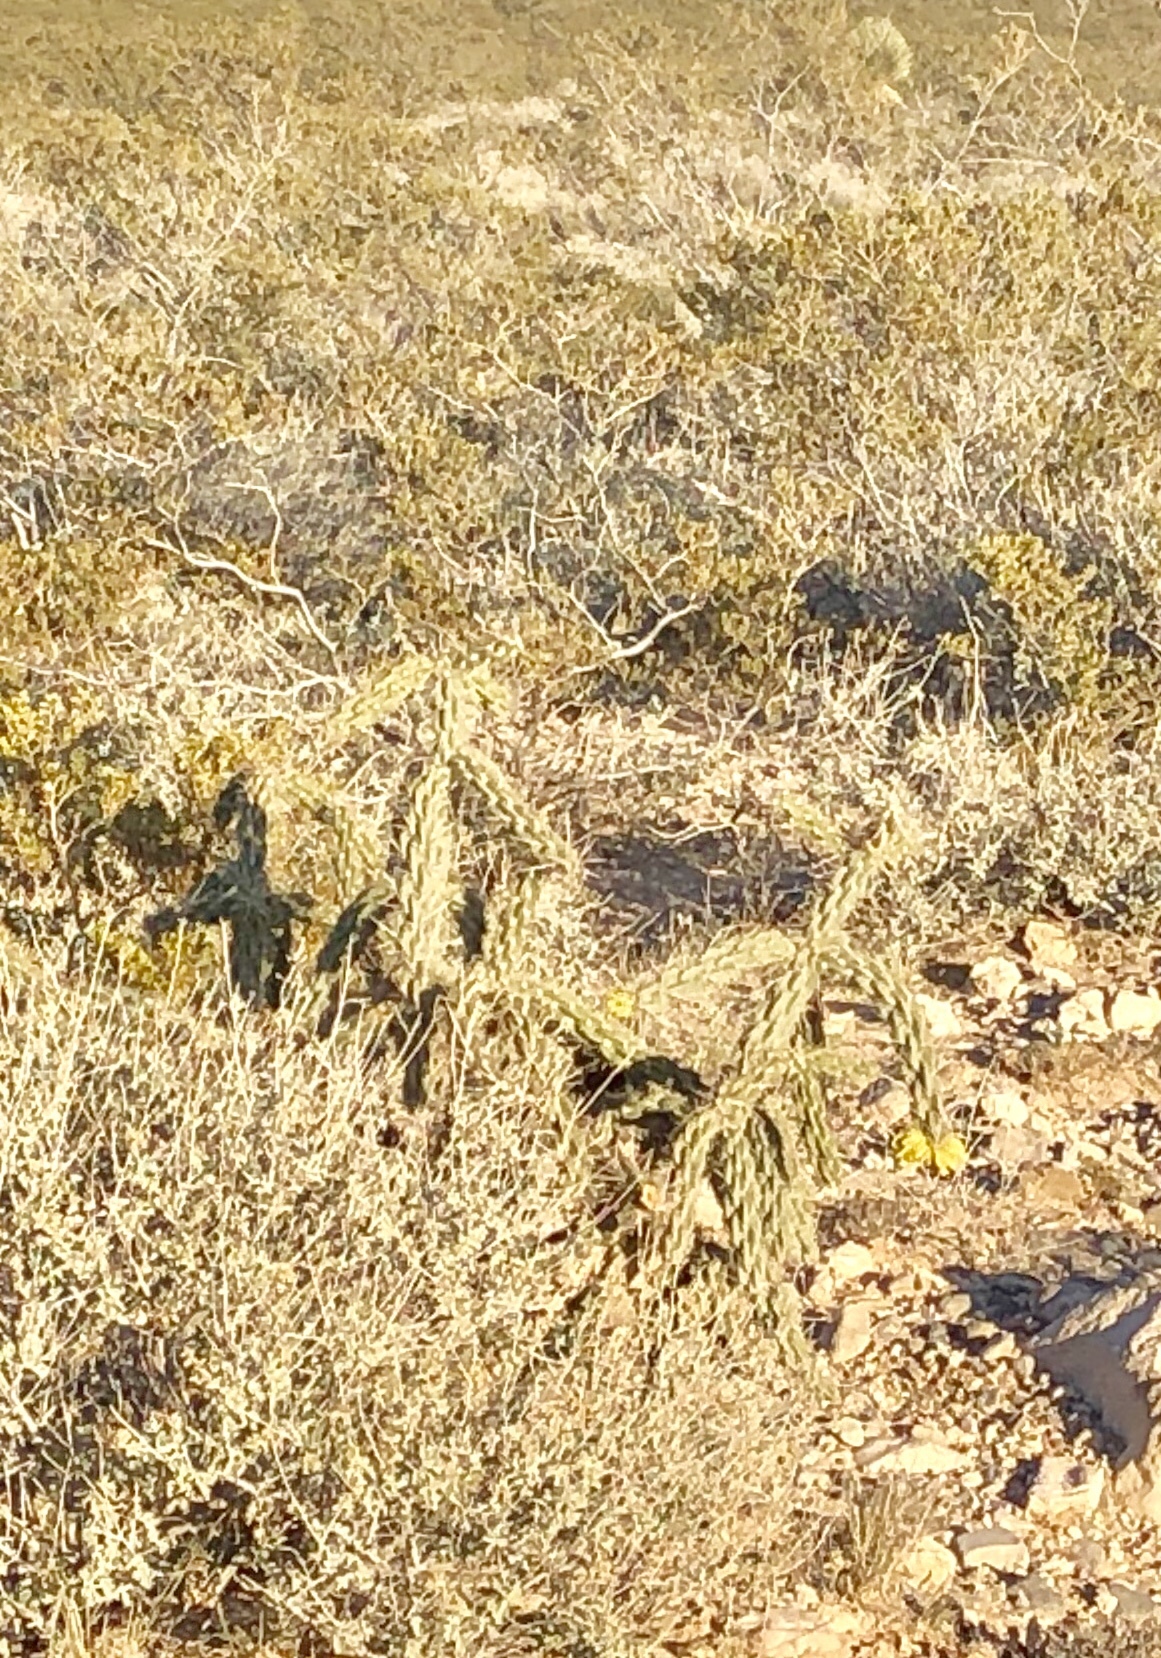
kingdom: Plantae
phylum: Tracheophyta
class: Magnoliopsida
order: Caryophyllales
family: Cactaceae
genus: Cylindropuntia
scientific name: Cylindropuntia imbricata
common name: Candelabrum cactus
